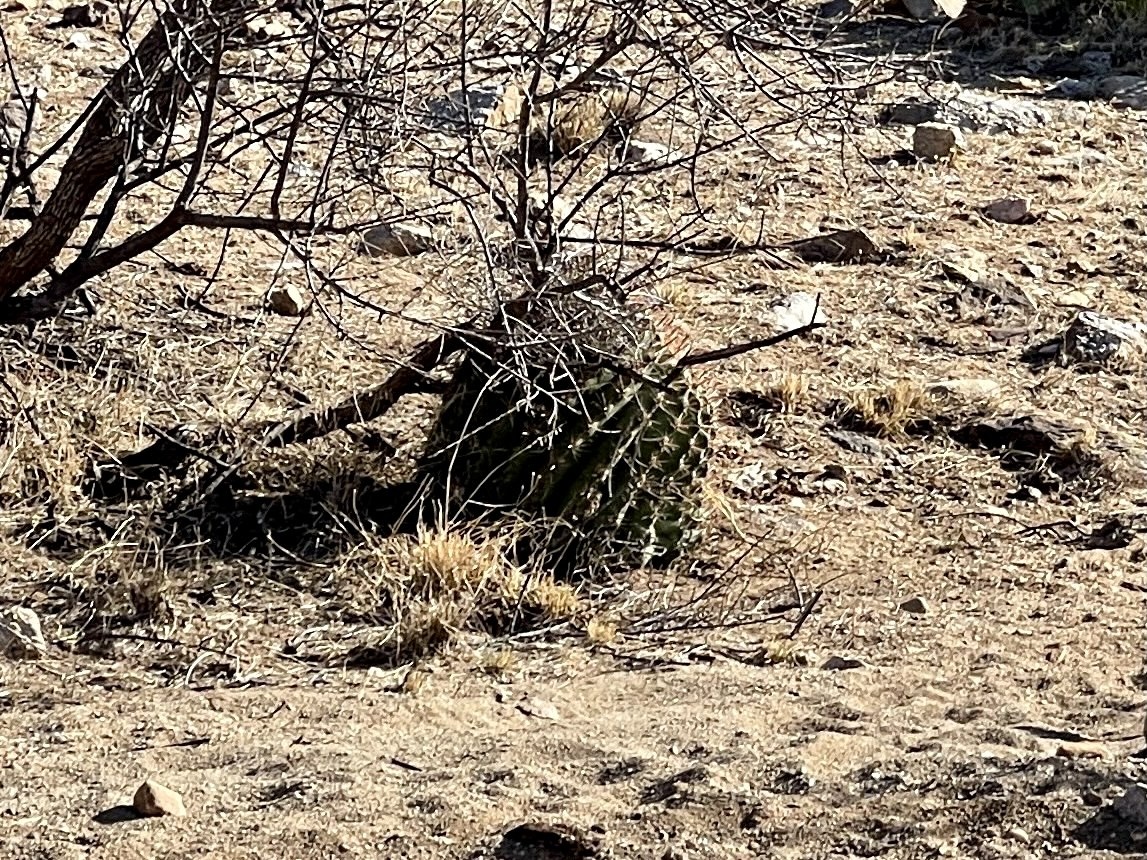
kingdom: Plantae
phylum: Tracheophyta
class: Magnoliopsida
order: Caryophyllales
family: Cactaceae
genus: Ferocactus
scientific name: Ferocactus wislizeni
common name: Candy barrel cactus
